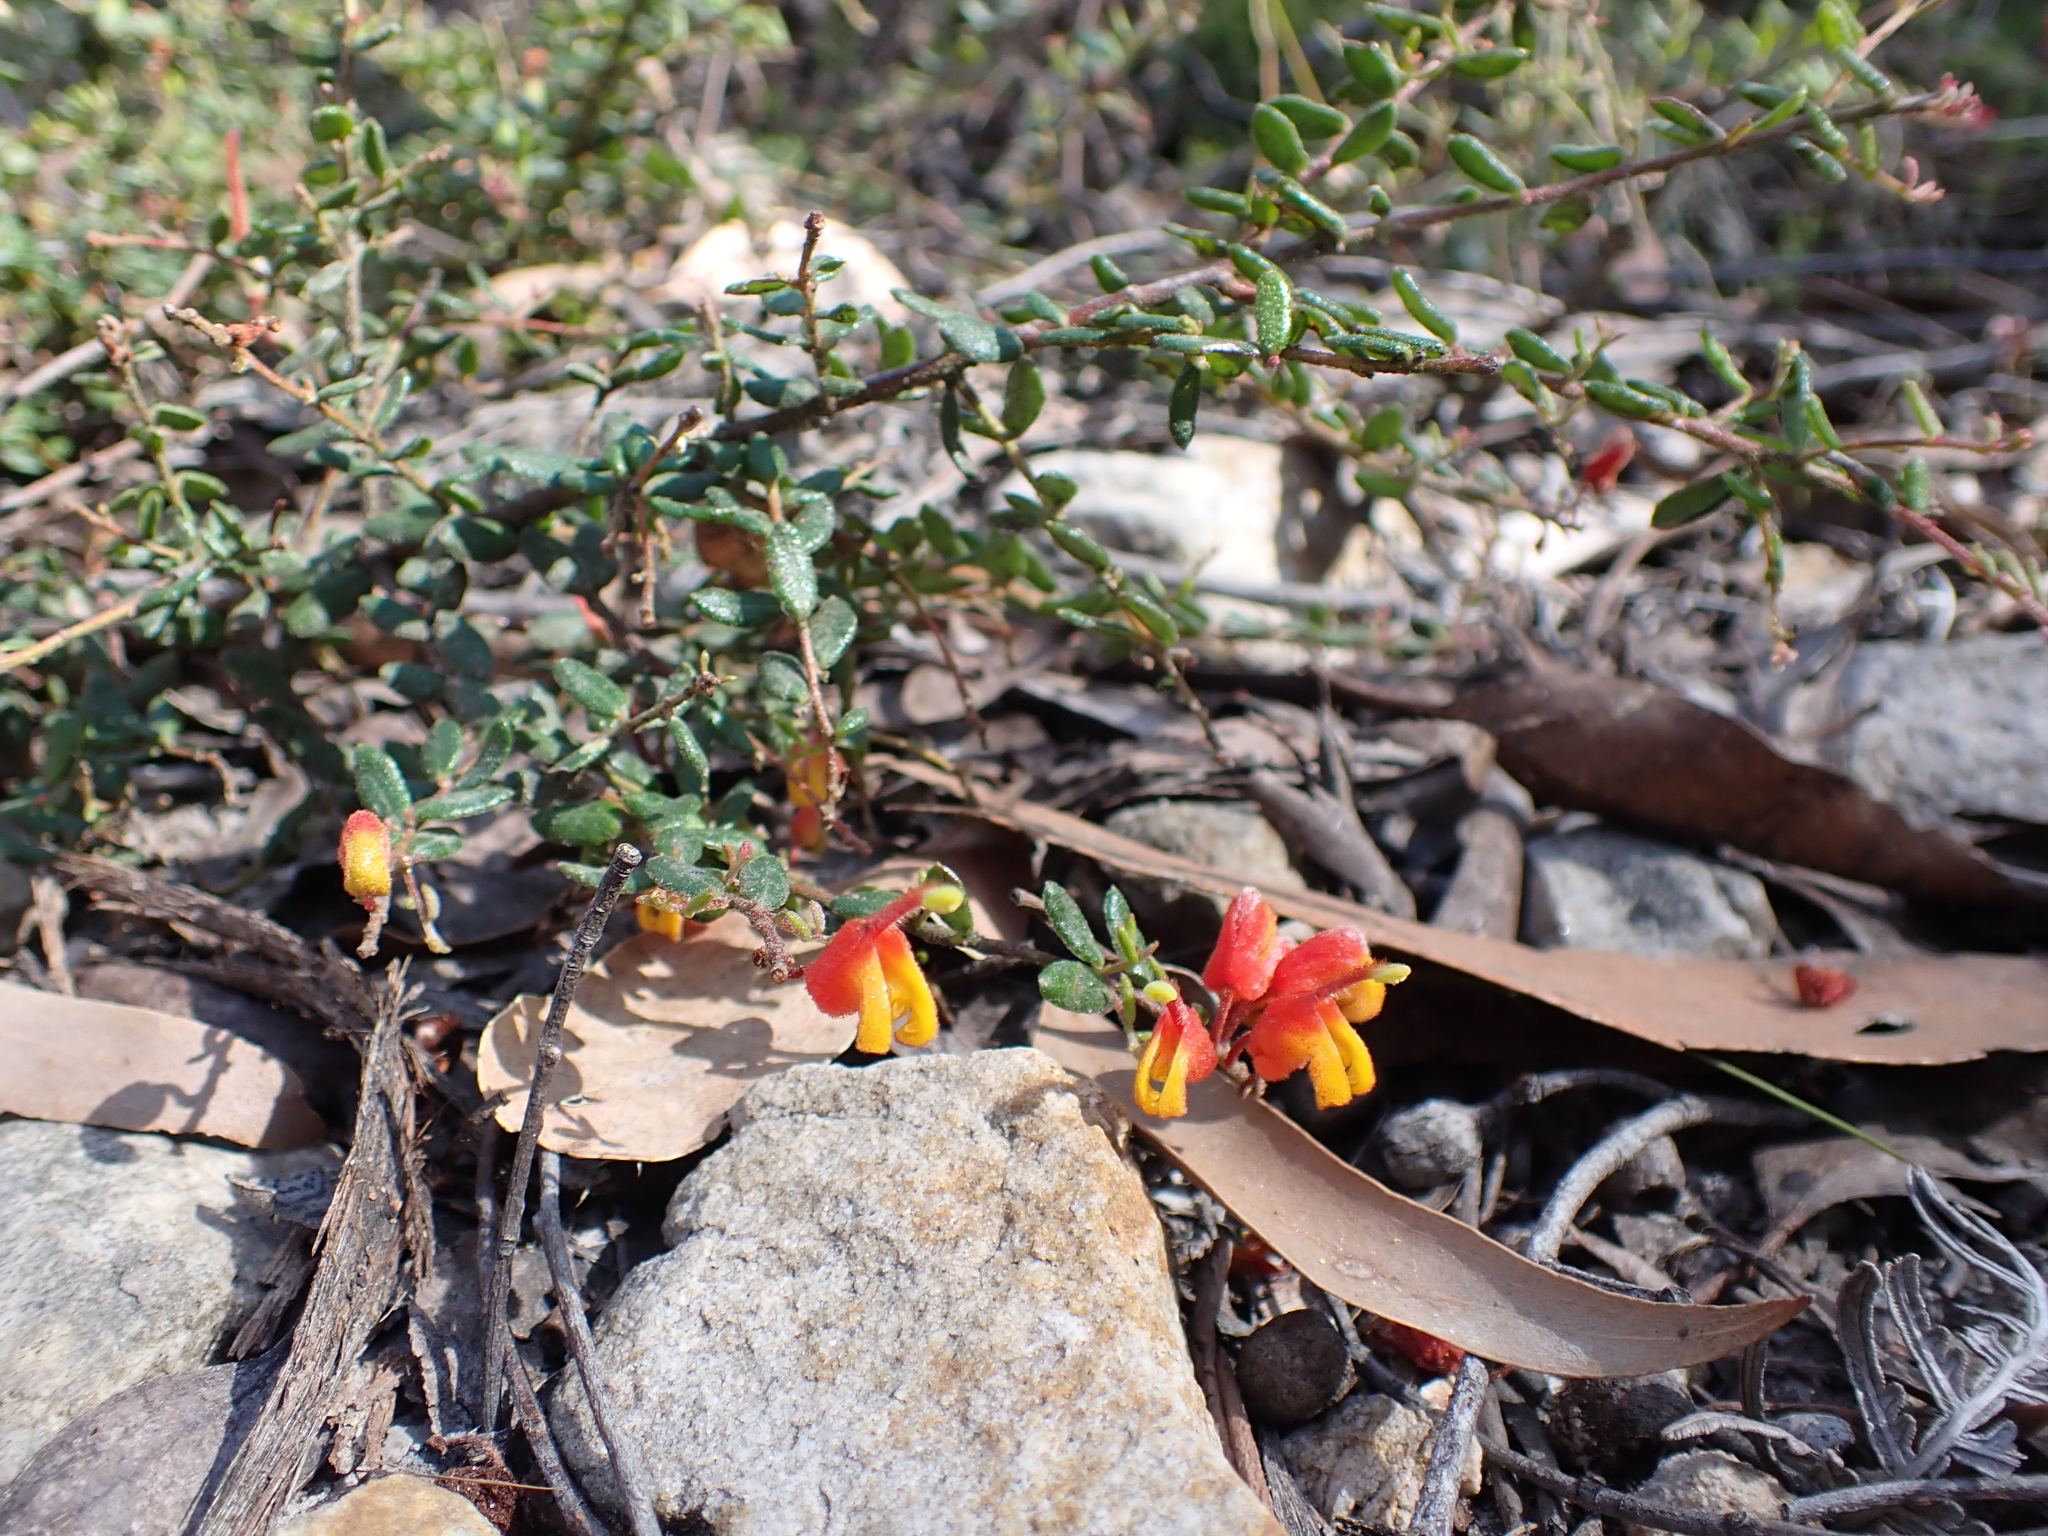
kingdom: Plantae
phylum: Tracheophyta
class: Magnoliopsida
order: Proteales
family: Proteaceae
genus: Grevillea
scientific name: Grevillea alpina
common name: Catclaws grevillea
